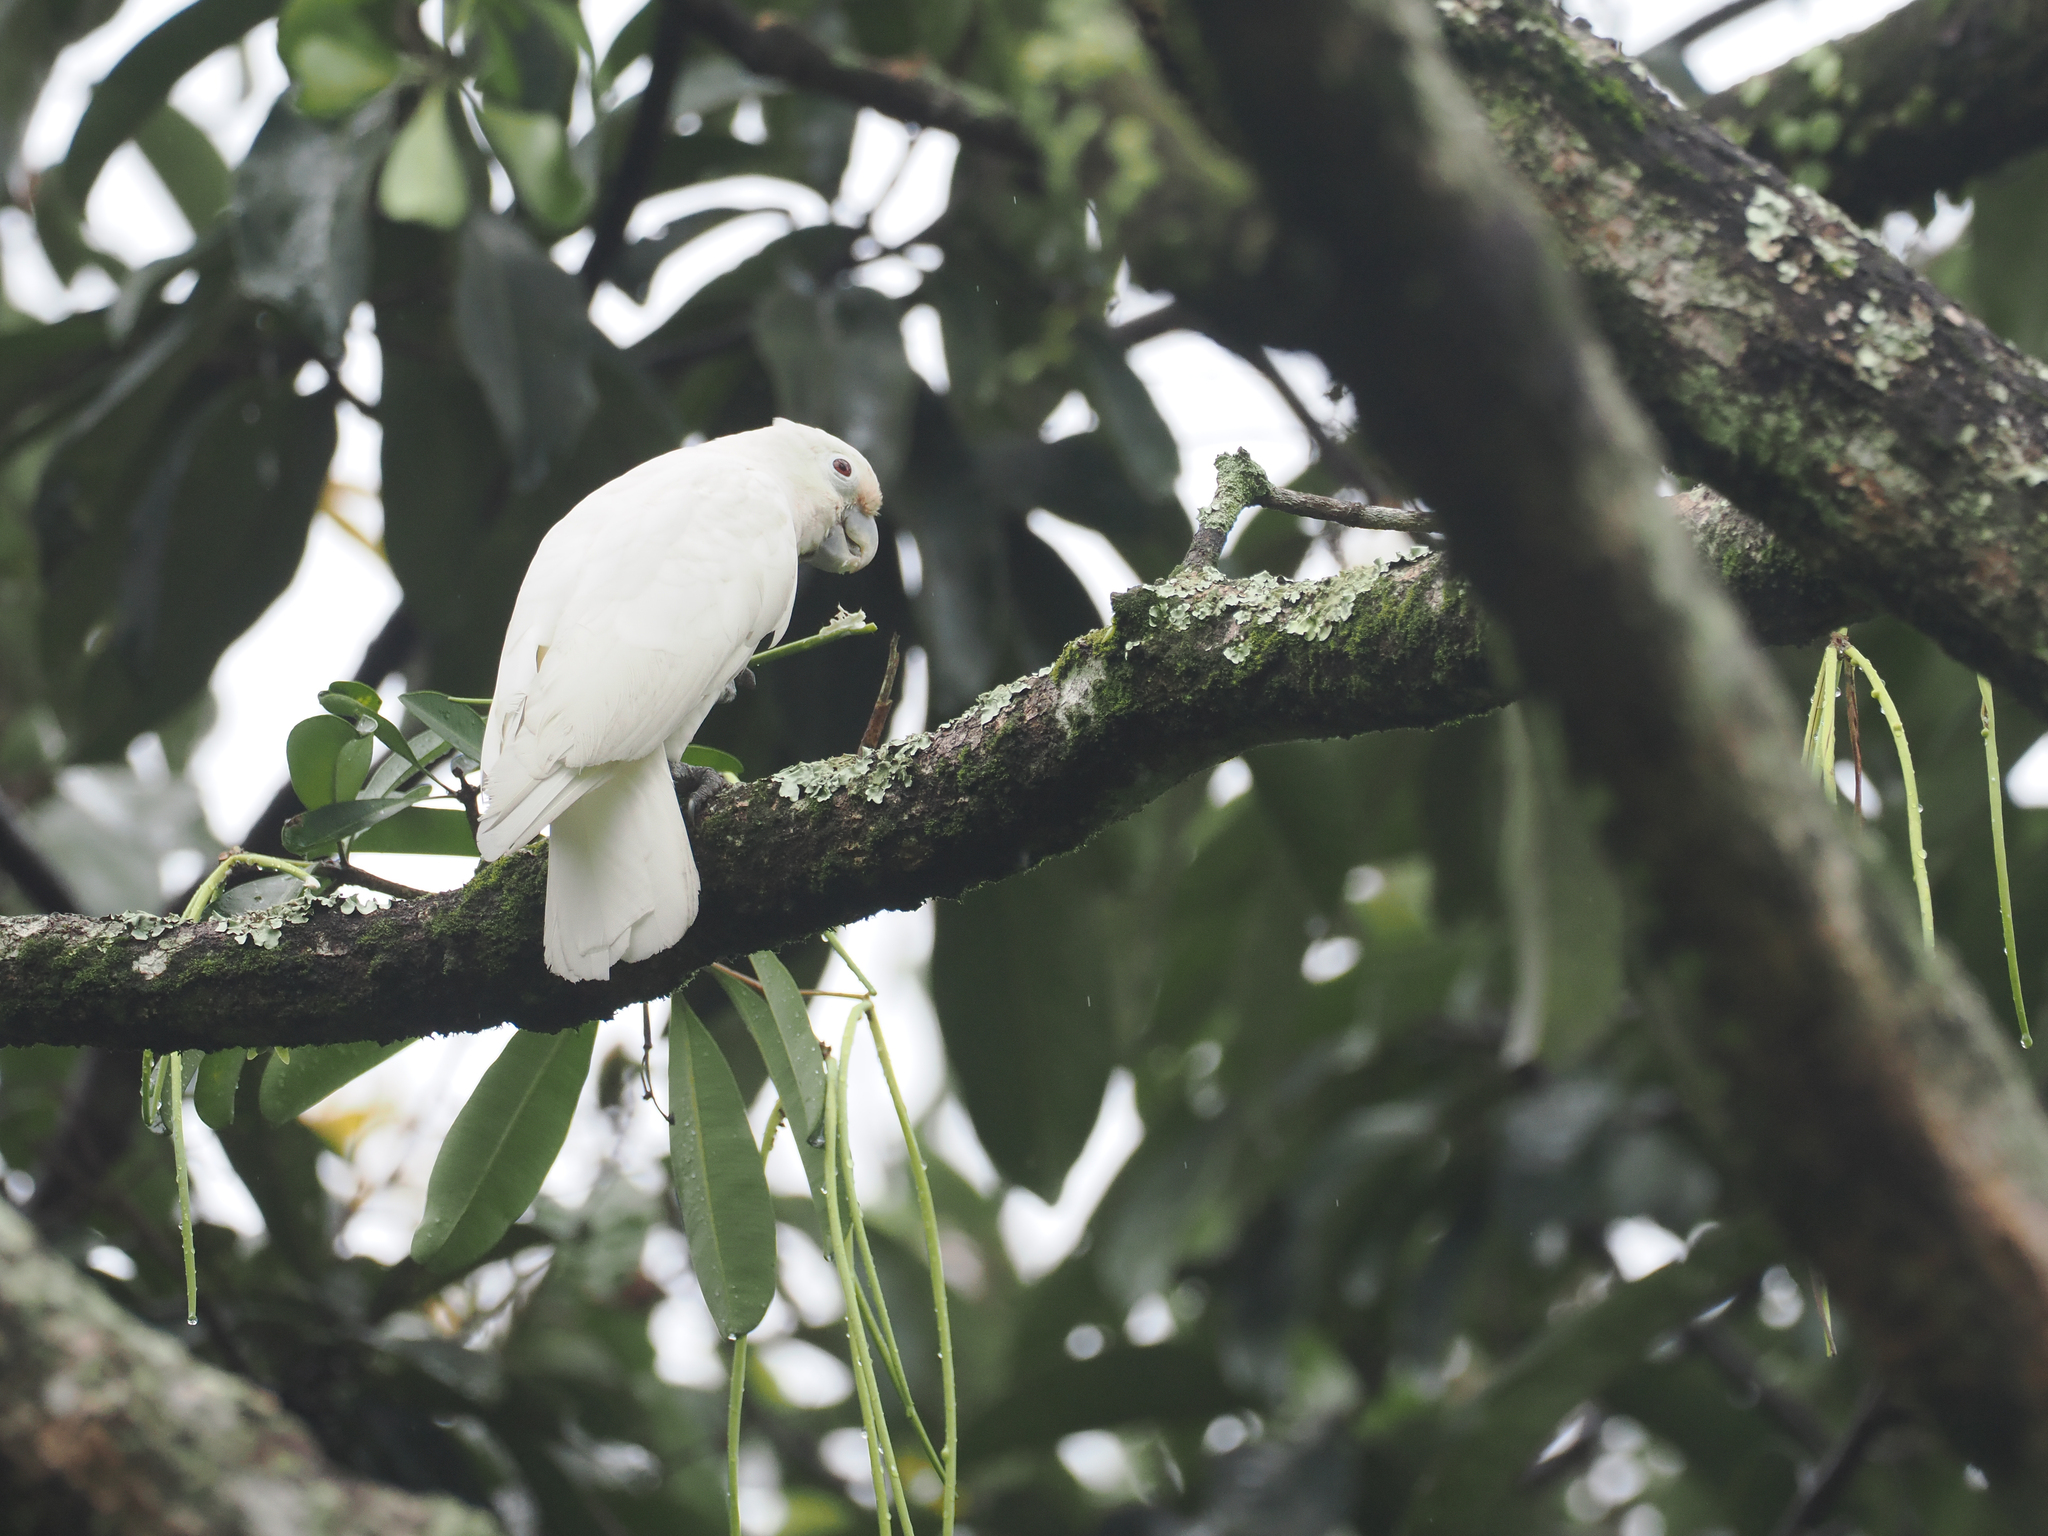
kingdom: Animalia
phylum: Chordata
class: Aves
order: Psittaciformes
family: Psittacidae
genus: Cacatua
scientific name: Cacatua goffiniana
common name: Tanimbar corella
